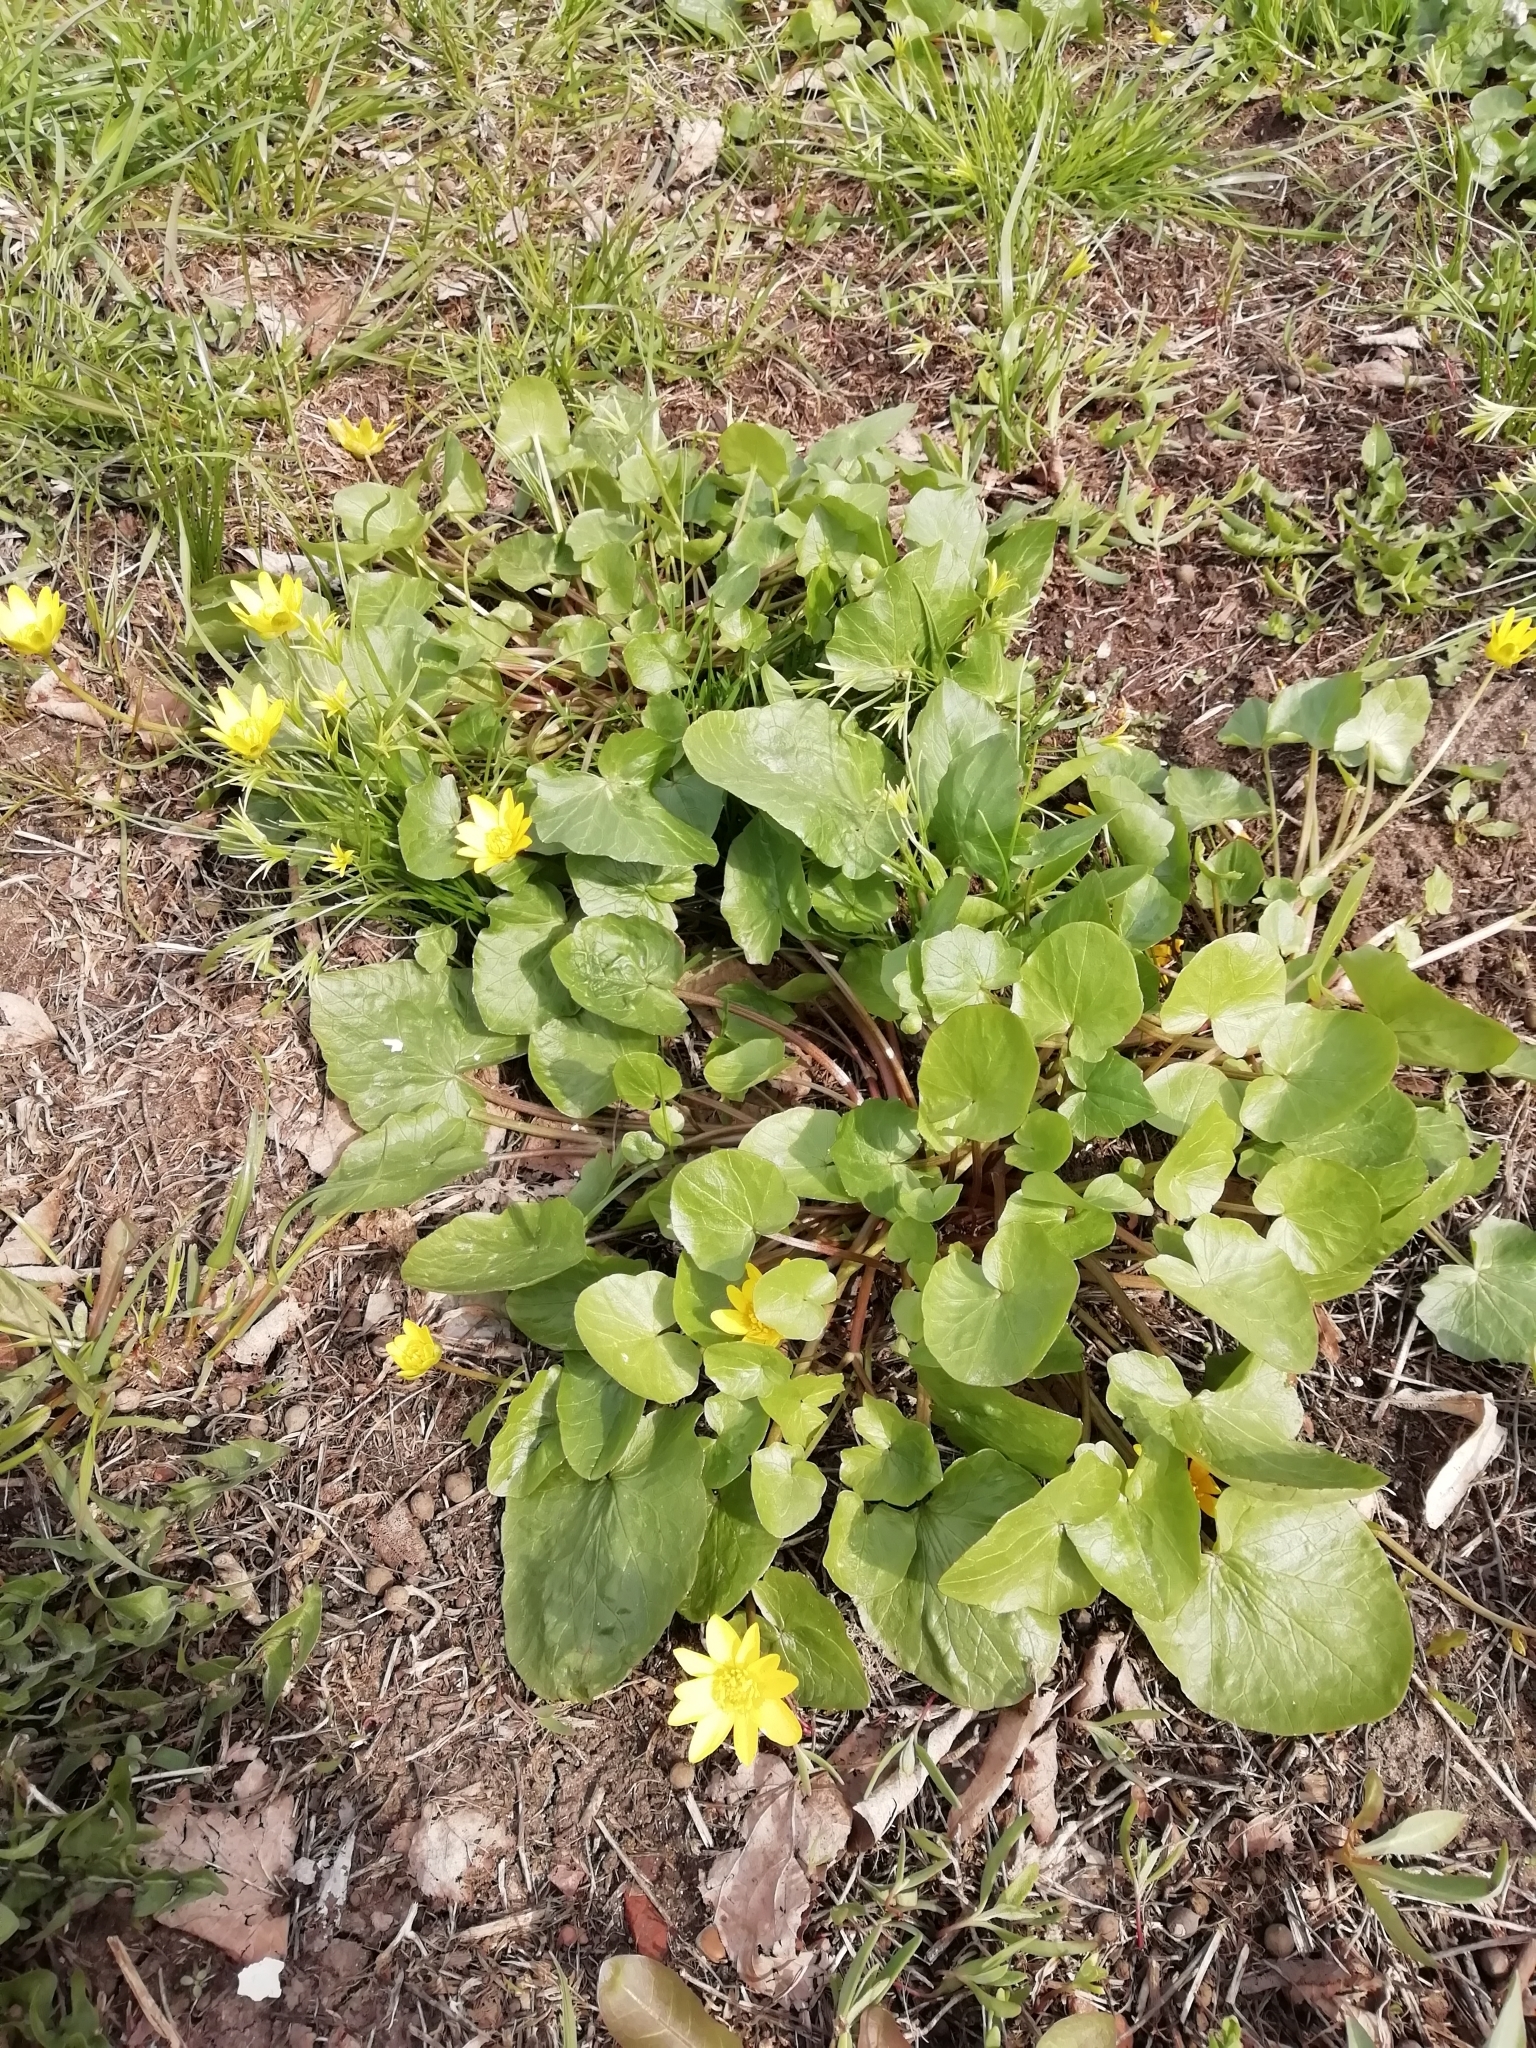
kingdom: Plantae
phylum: Tracheophyta
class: Magnoliopsida
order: Ranunculales
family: Ranunculaceae
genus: Ficaria
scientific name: Ficaria verna
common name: Lesser celandine
